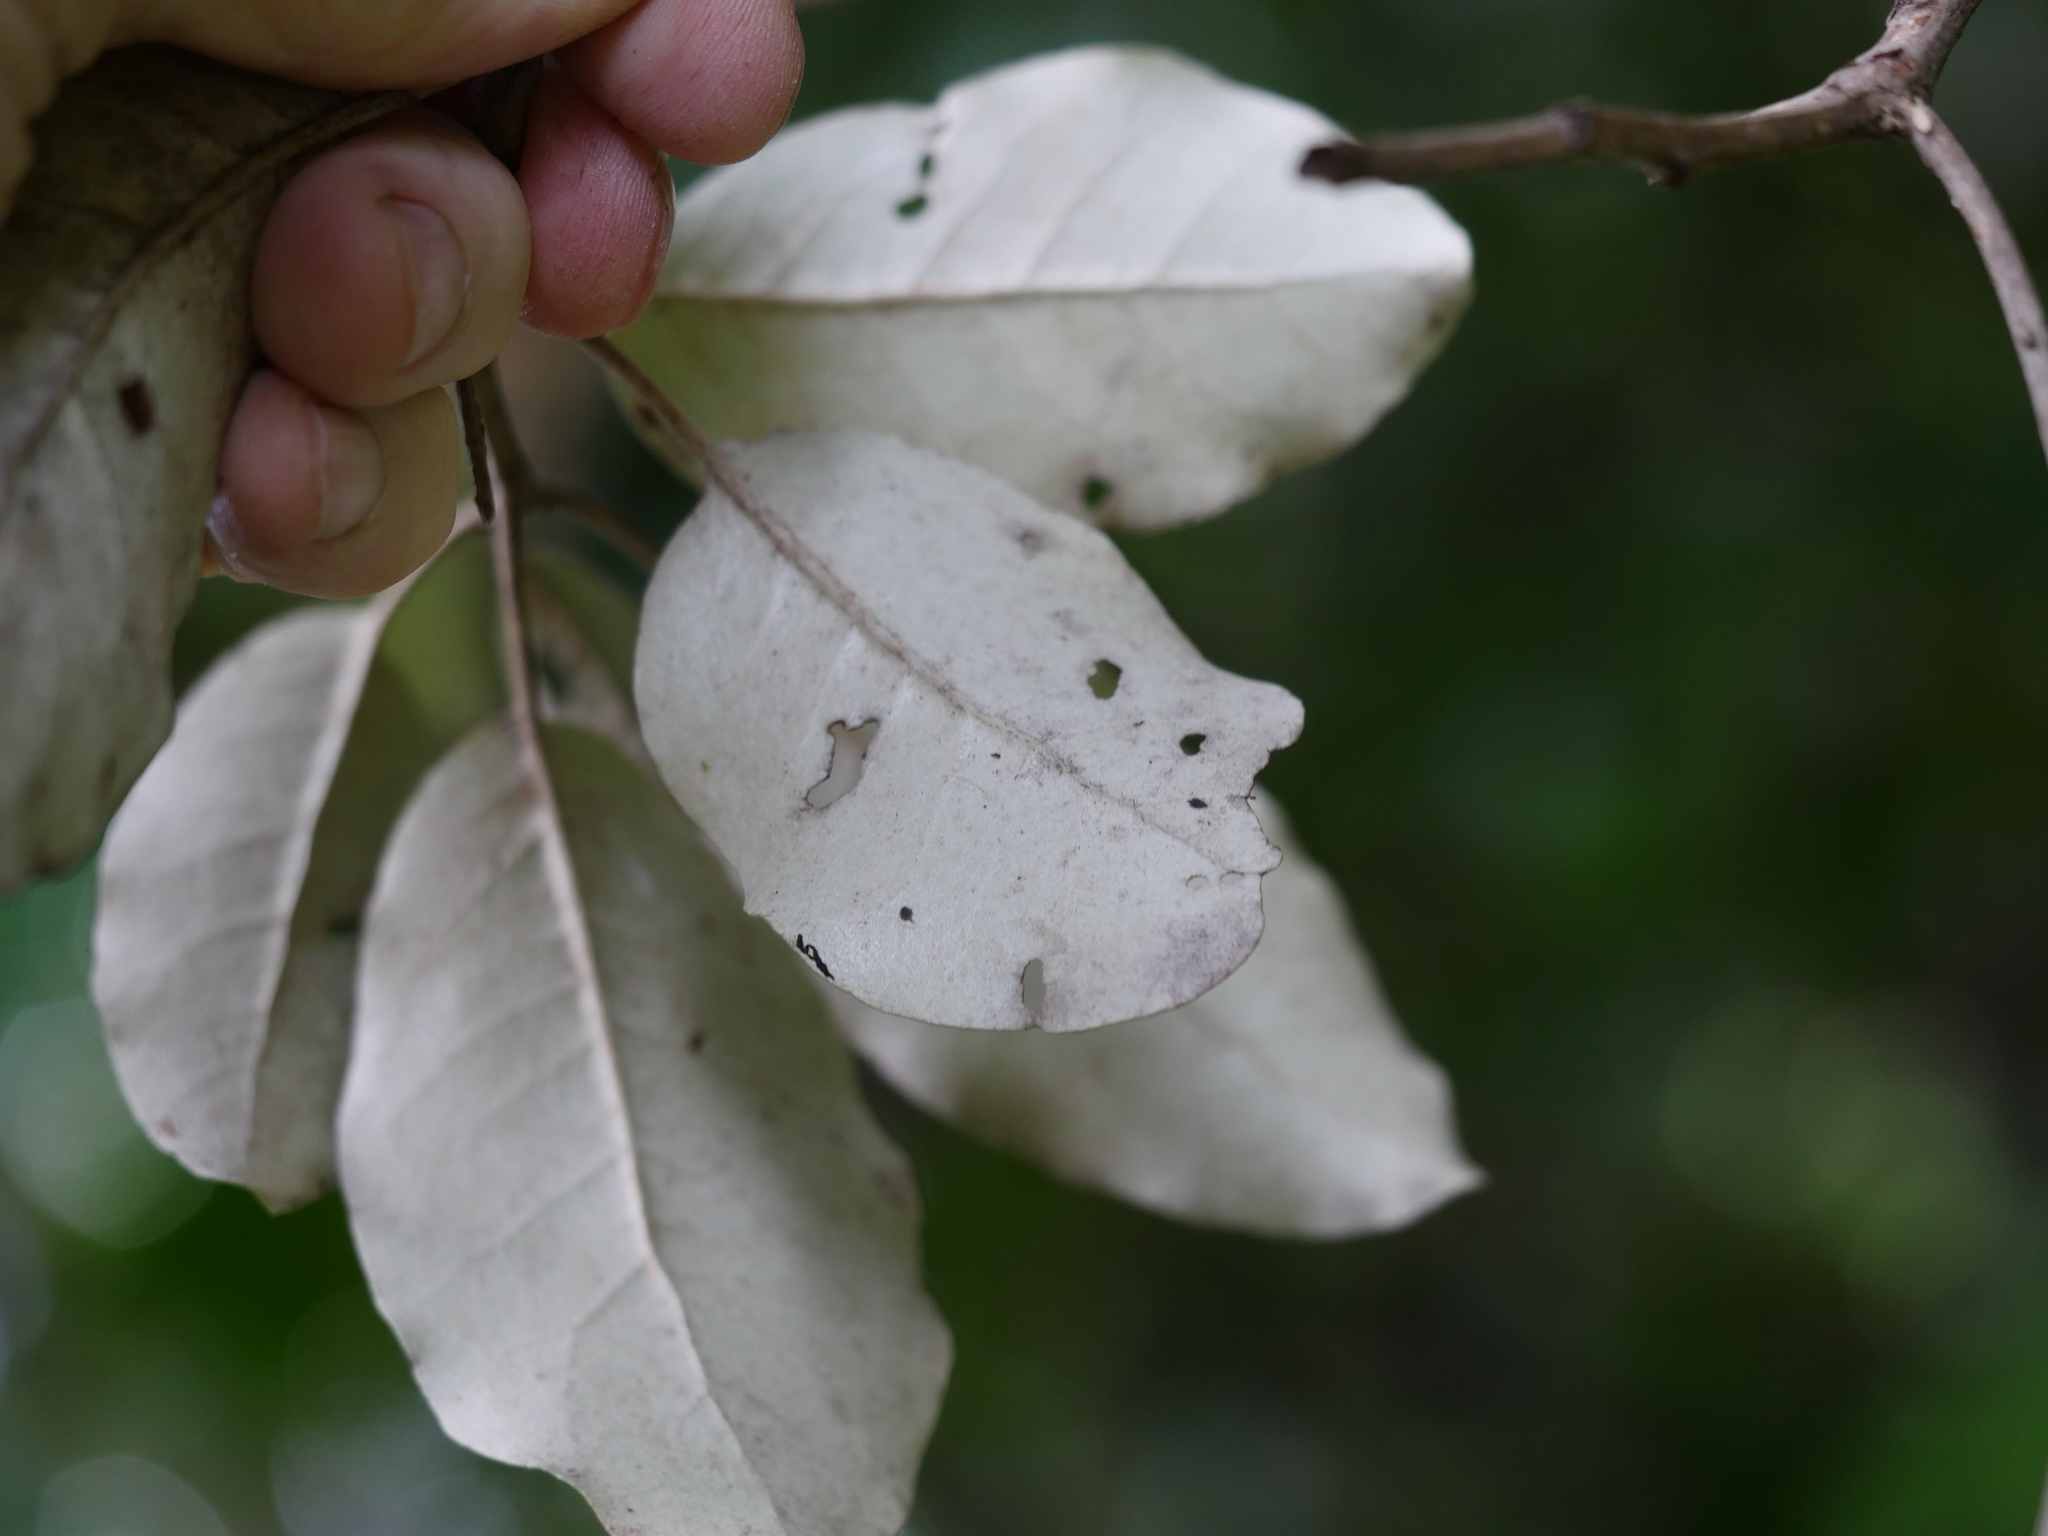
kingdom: Plantae
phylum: Tracheophyta
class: Magnoliopsida
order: Asterales
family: Asteraceae
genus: Olearia
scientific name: Olearia furfuracea
